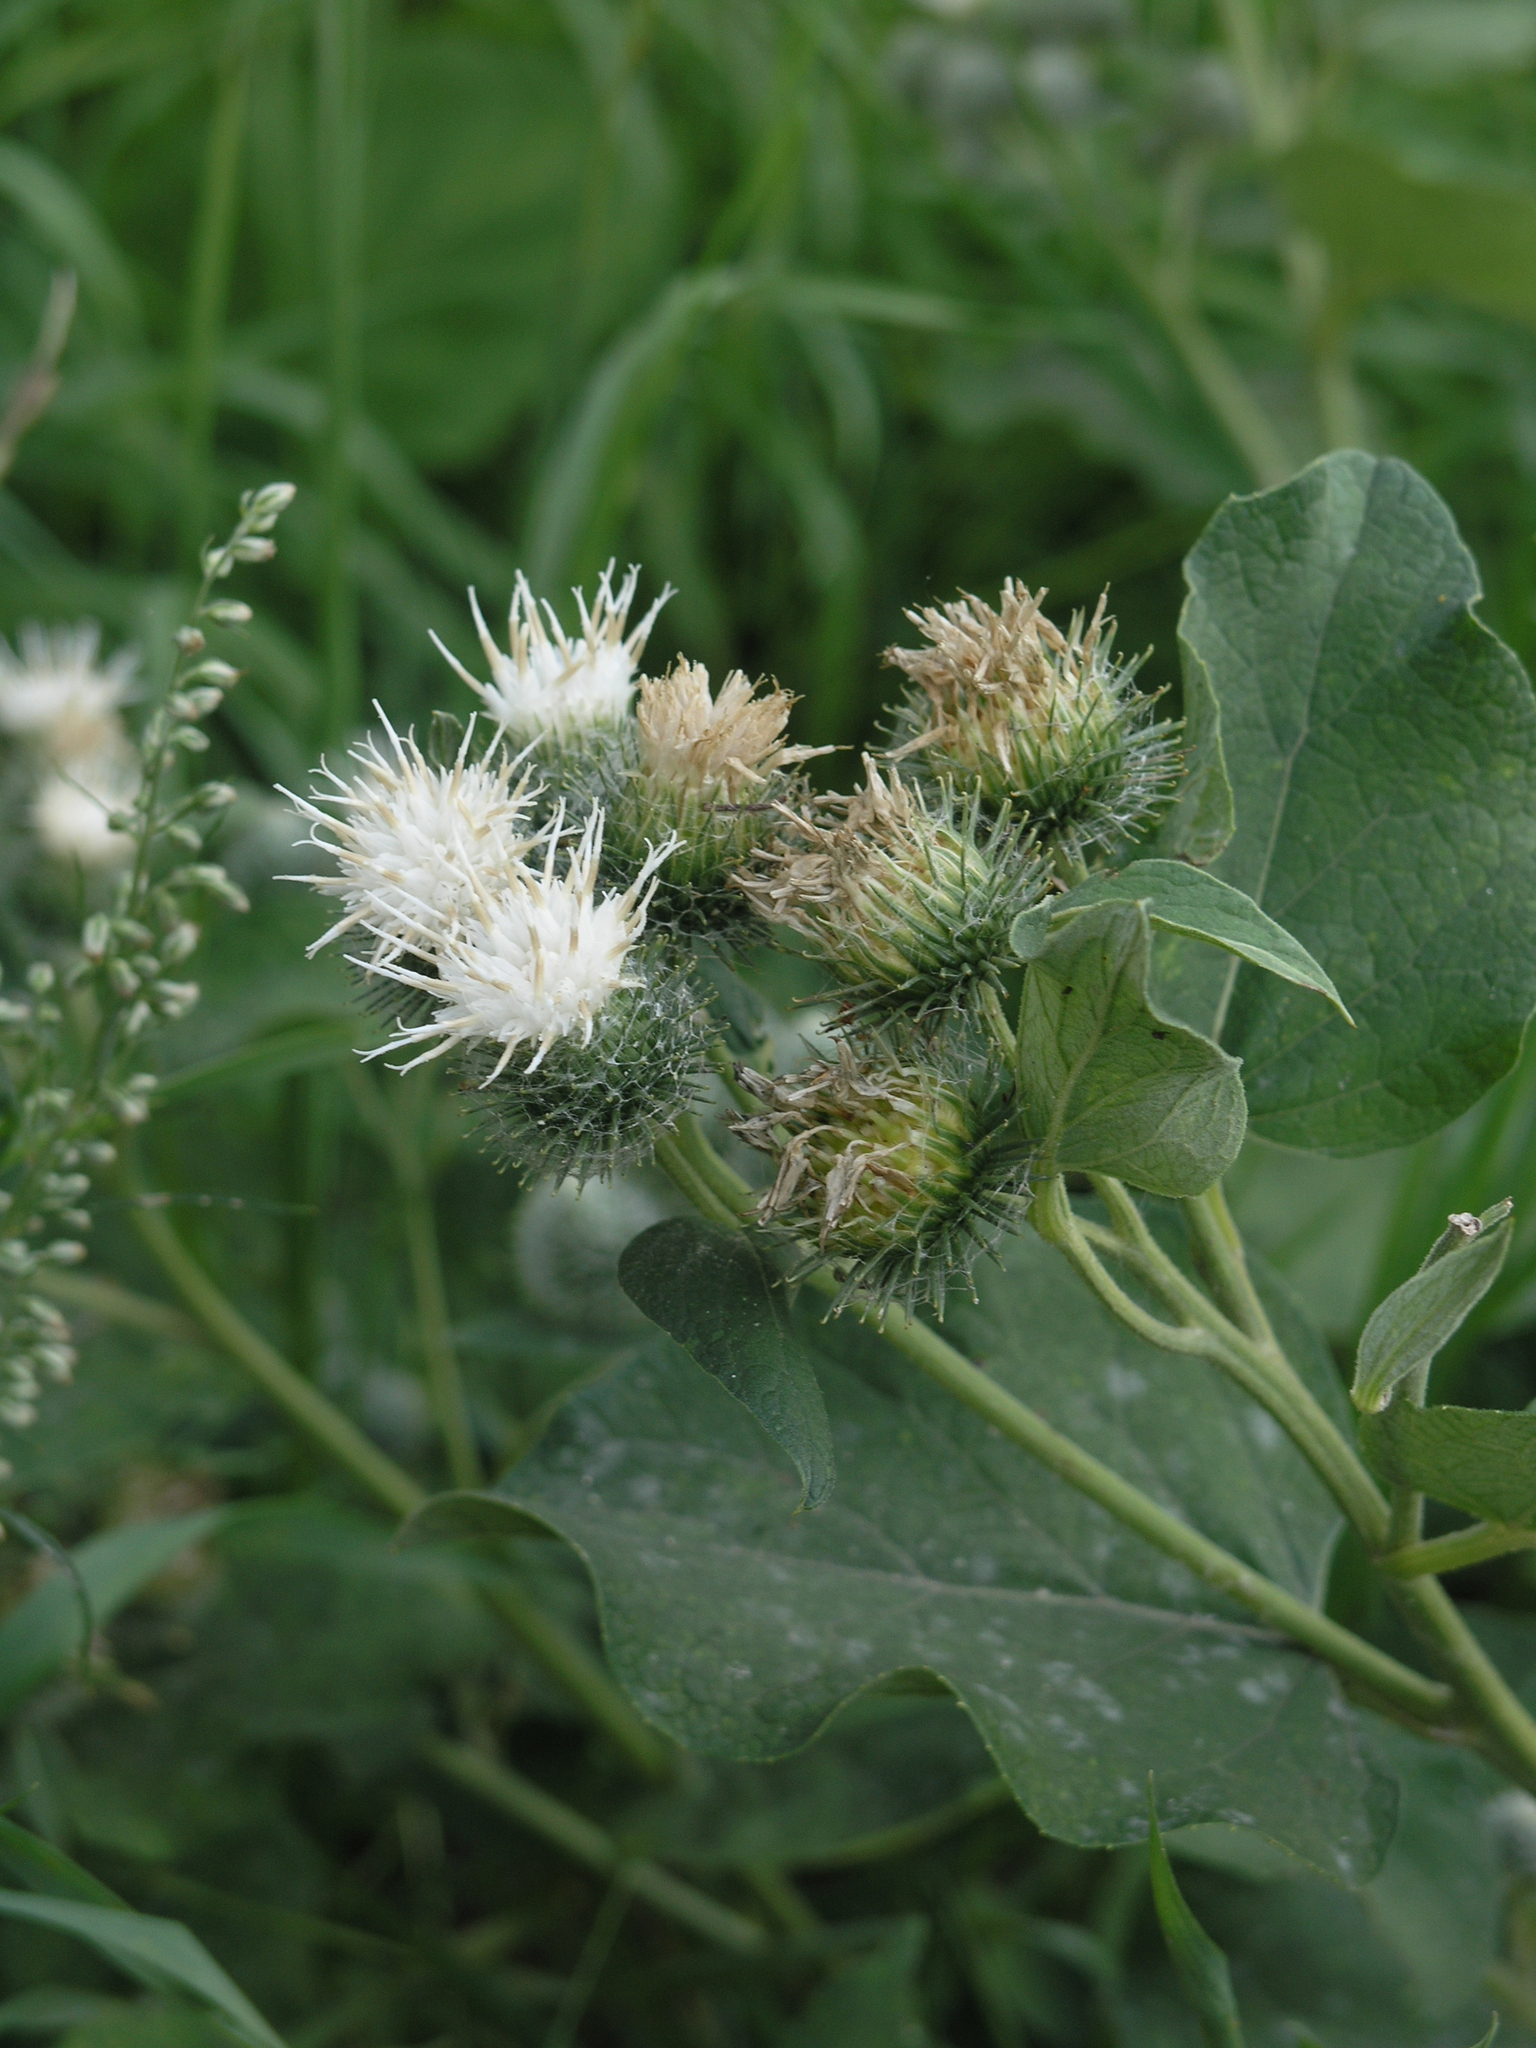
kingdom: Plantae
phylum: Tracheophyta
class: Magnoliopsida
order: Asterales
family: Asteraceae
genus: Arctium
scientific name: Arctium tomentosum
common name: Woolly burdock
